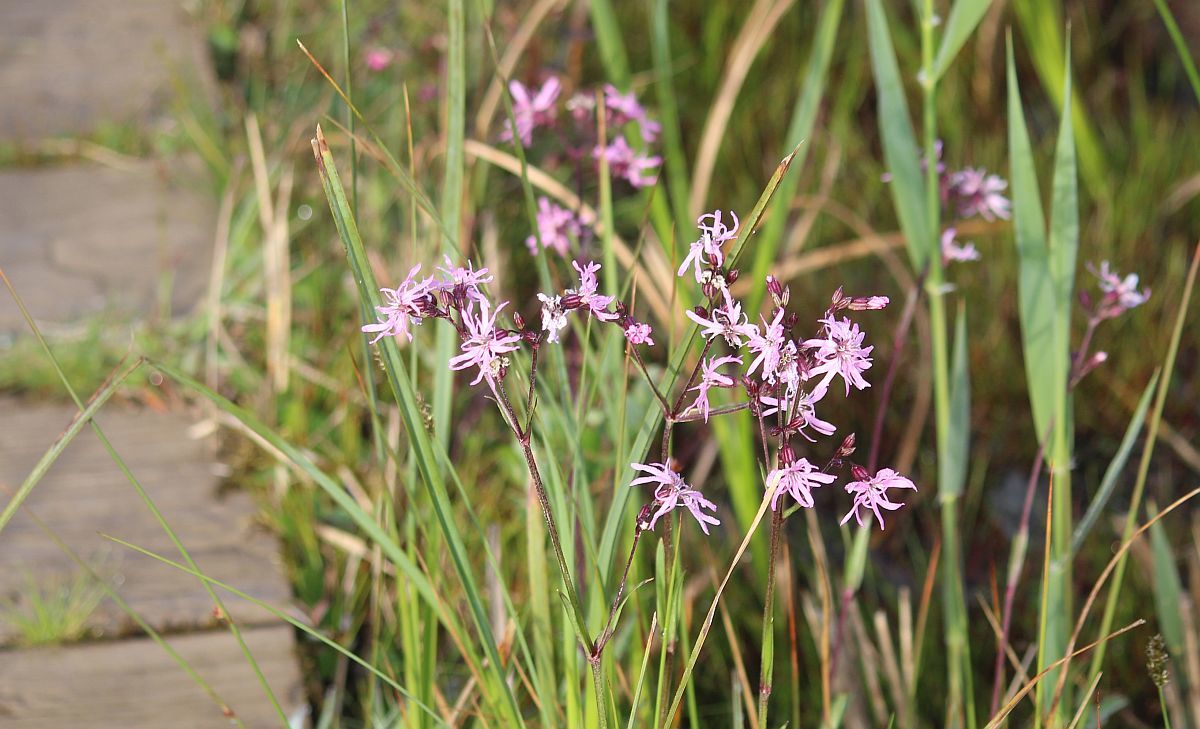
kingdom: Plantae
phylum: Tracheophyta
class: Magnoliopsida
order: Caryophyllales
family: Caryophyllaceae
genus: Silene
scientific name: Silene flos-cuculi
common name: Ragged-robin
